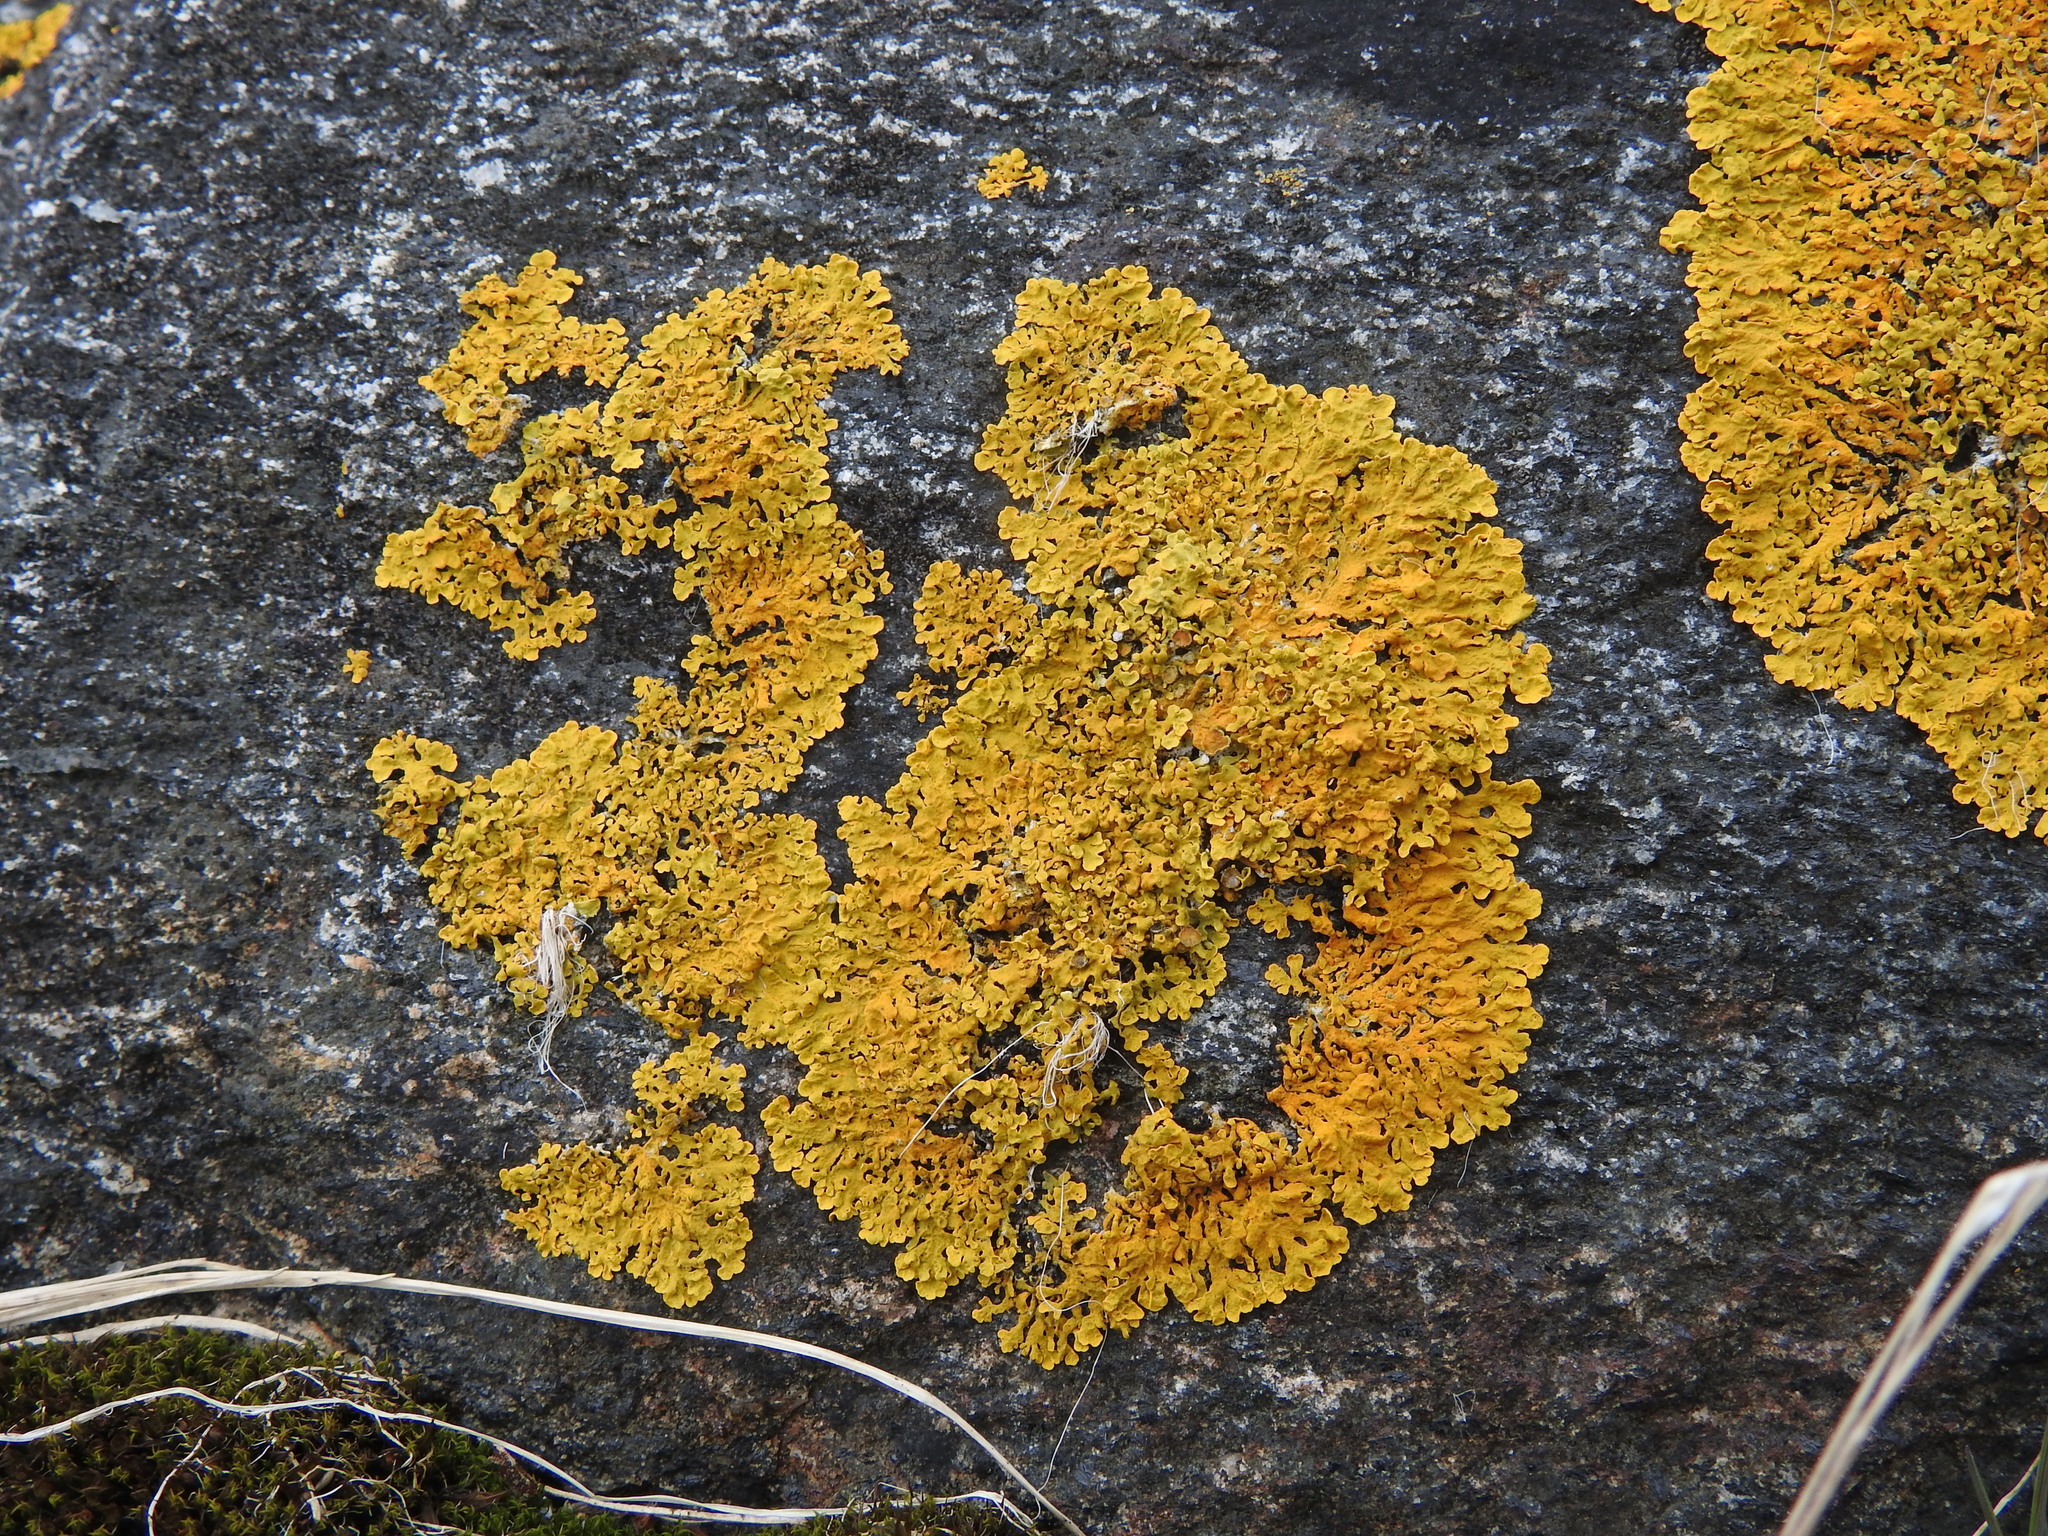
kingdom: Fungi
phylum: Ascomycota
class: Lecanoromycetes
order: Teloschistales
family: Teloschistaceae
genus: Xanthoria
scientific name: Xanthoria parietina
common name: Common orange lichen
